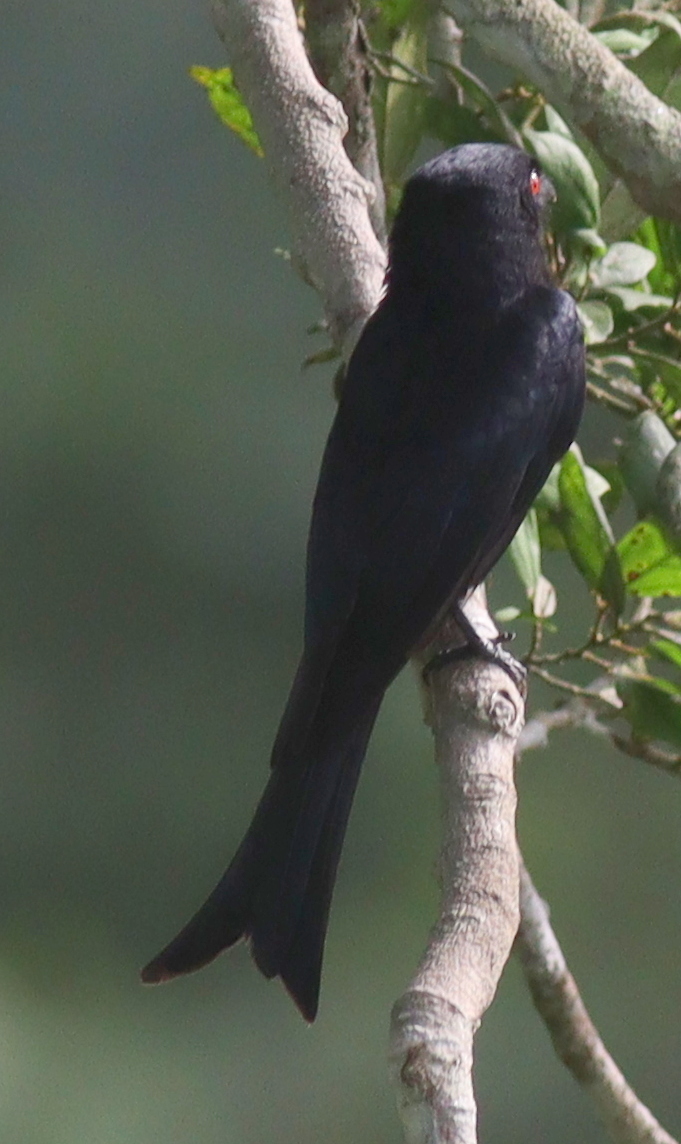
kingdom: Animalia
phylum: Chordata
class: Aves
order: Passeriformes
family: Dicruridae
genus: Dicrurus
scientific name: Dicrurus modestus
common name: Velvet-mantled drongo
